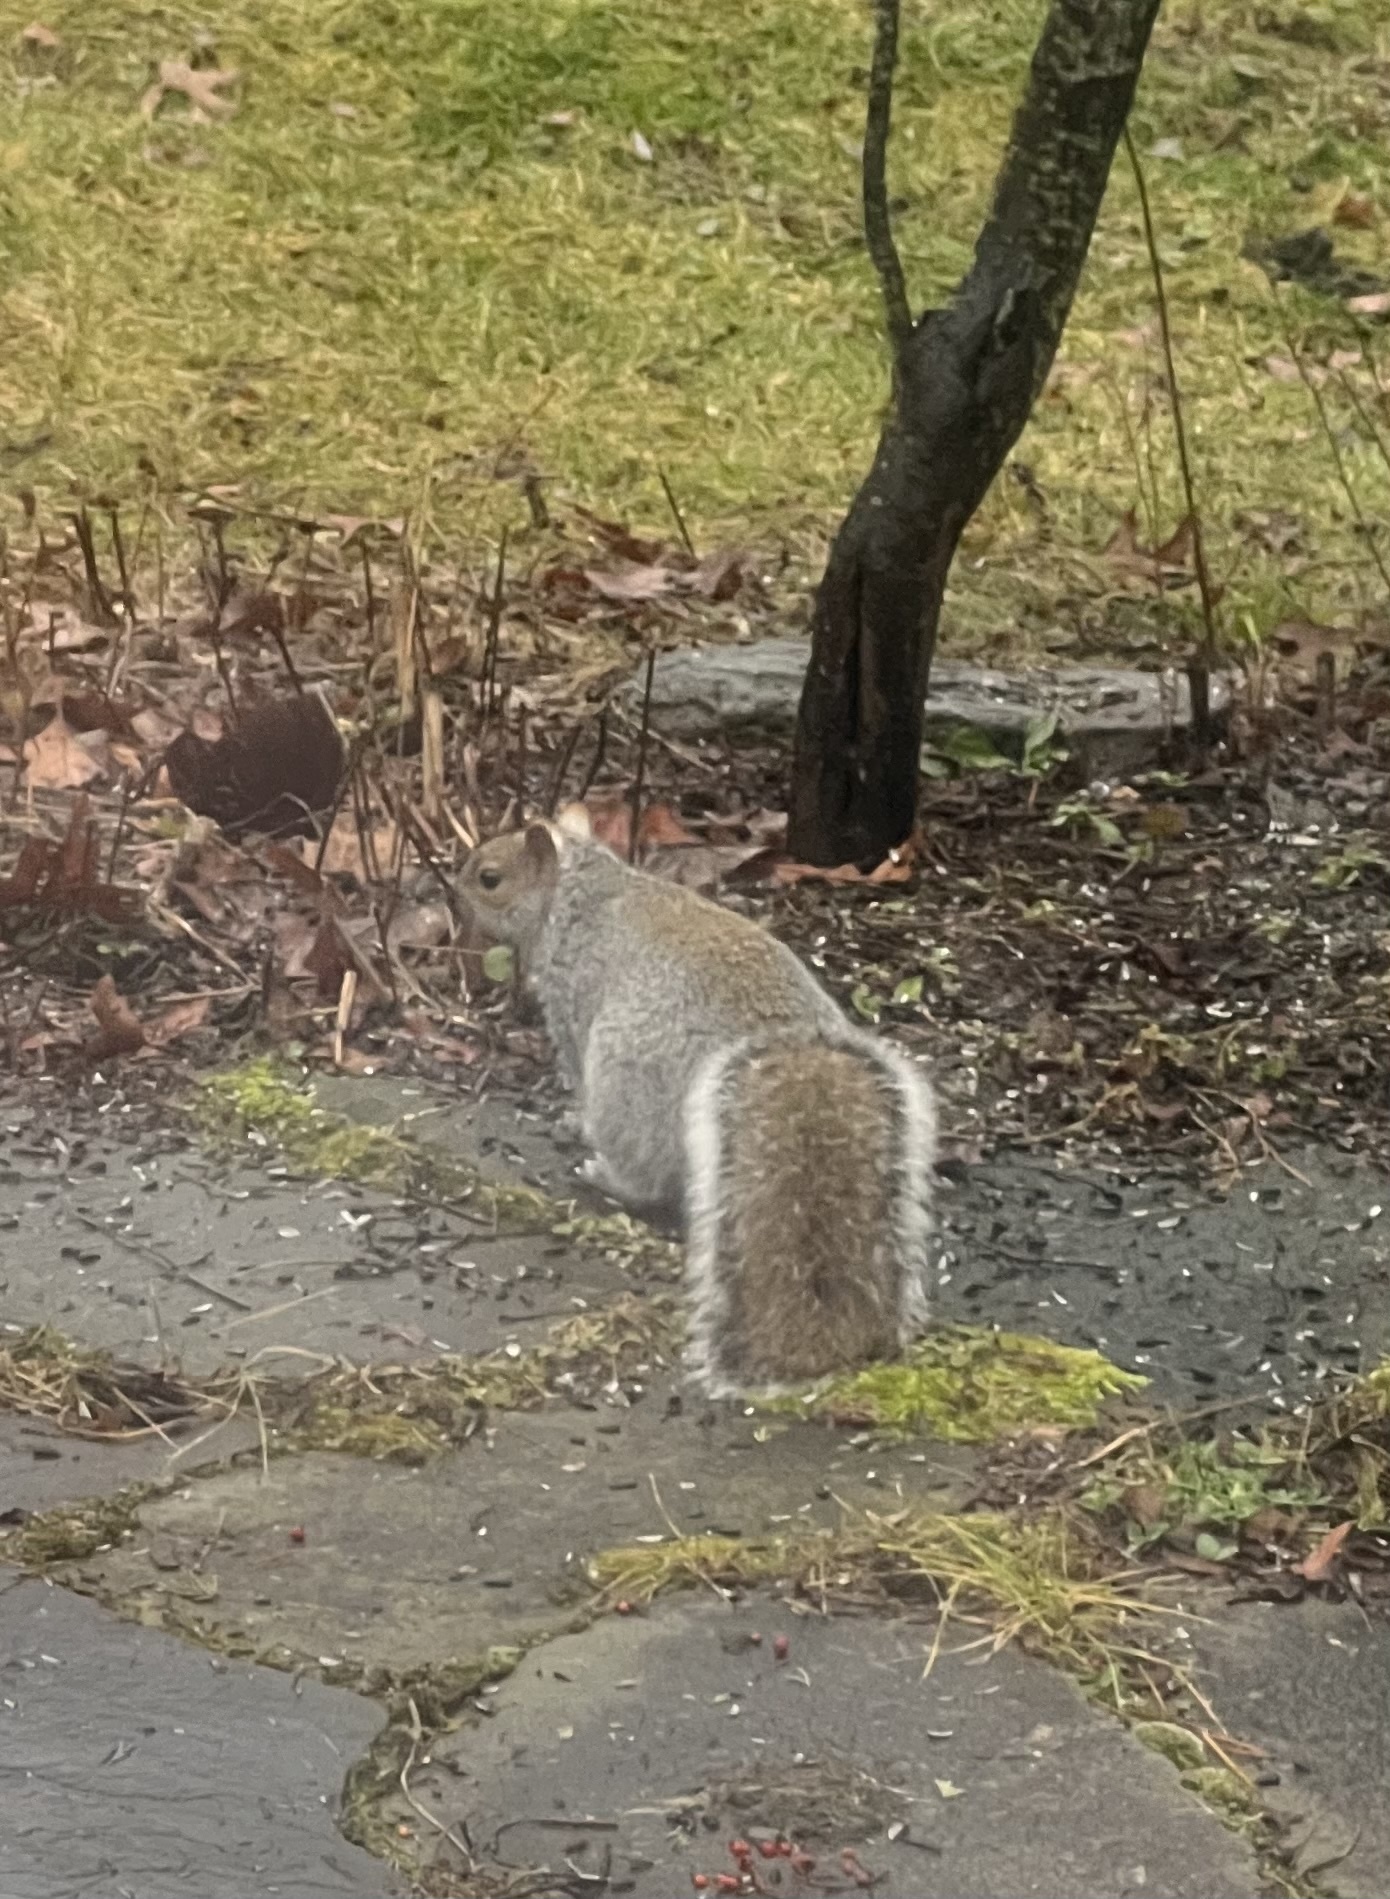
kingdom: Animalia
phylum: Chordata
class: Mammalia
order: Rodentia
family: Sciuridae
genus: Sciurus
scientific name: Sciurus carolinensis
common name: Eastern gray squirrel
